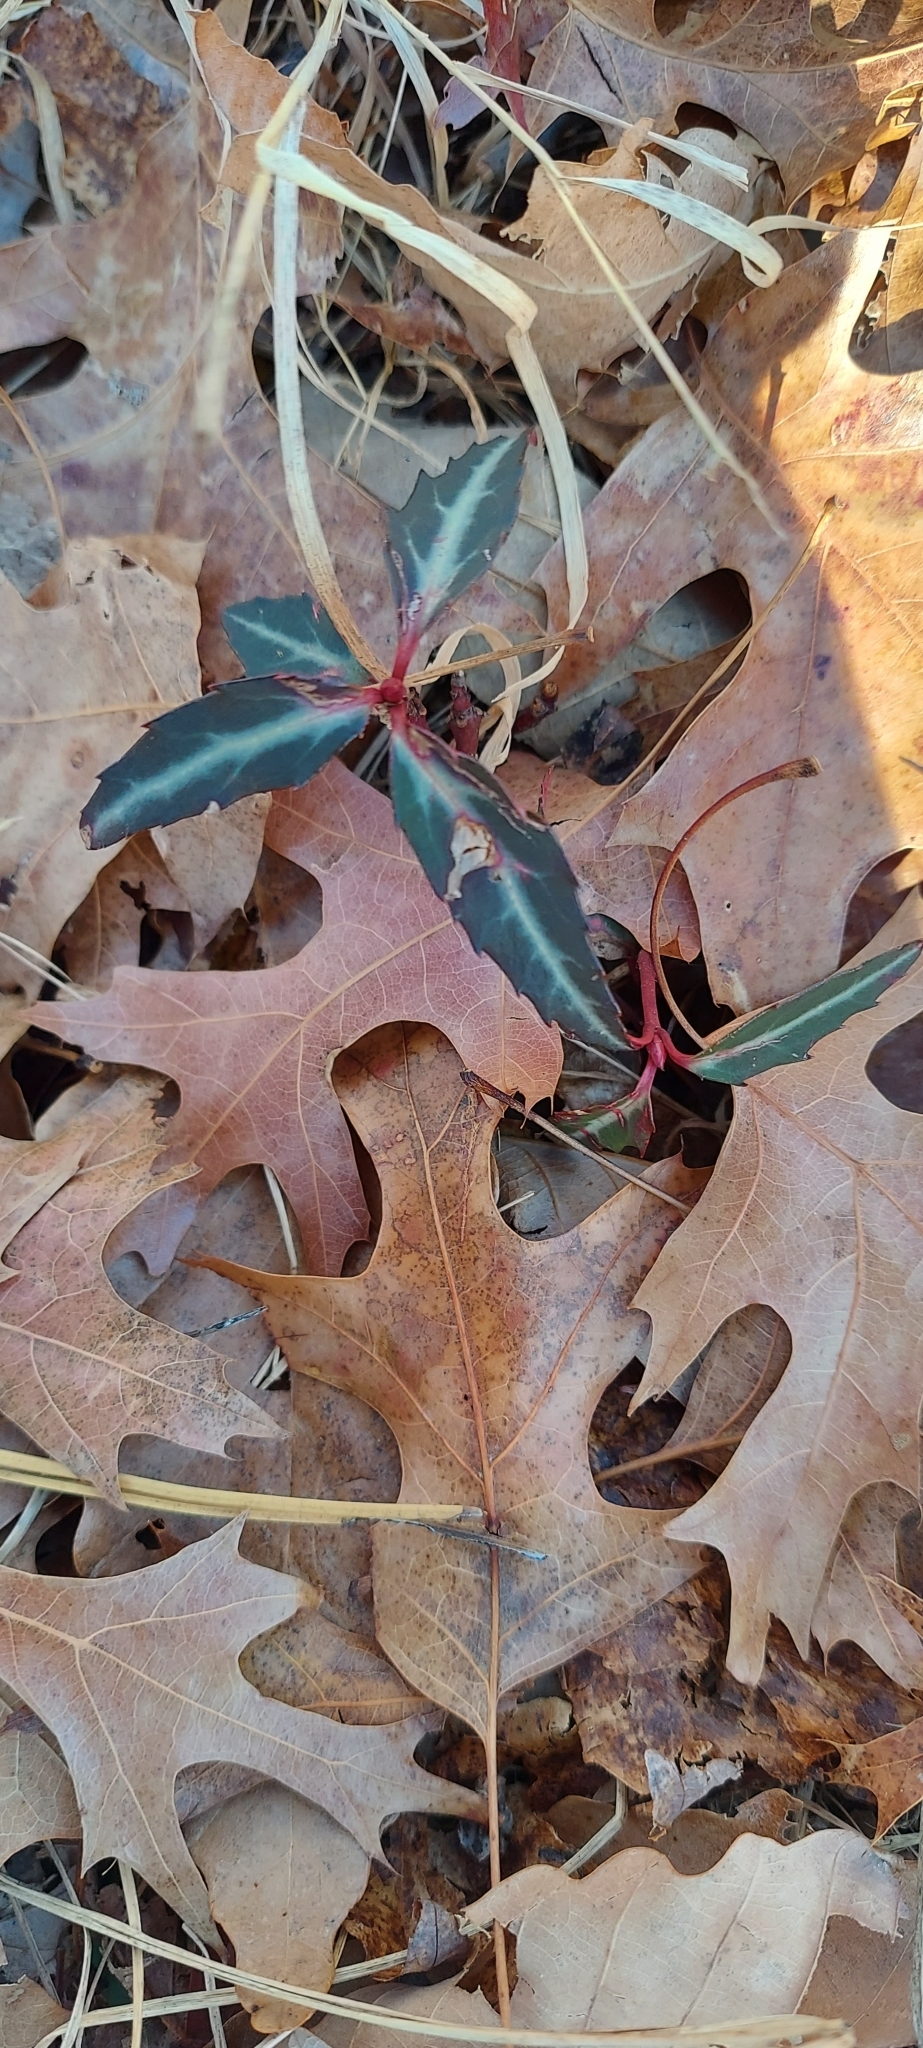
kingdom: Plantae
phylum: Tracheophyta
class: Magnoliopsida
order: Ericales
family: Ericaceae
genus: Chimaphila
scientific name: Chimaphila maculata
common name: Spotted pipsissewa
